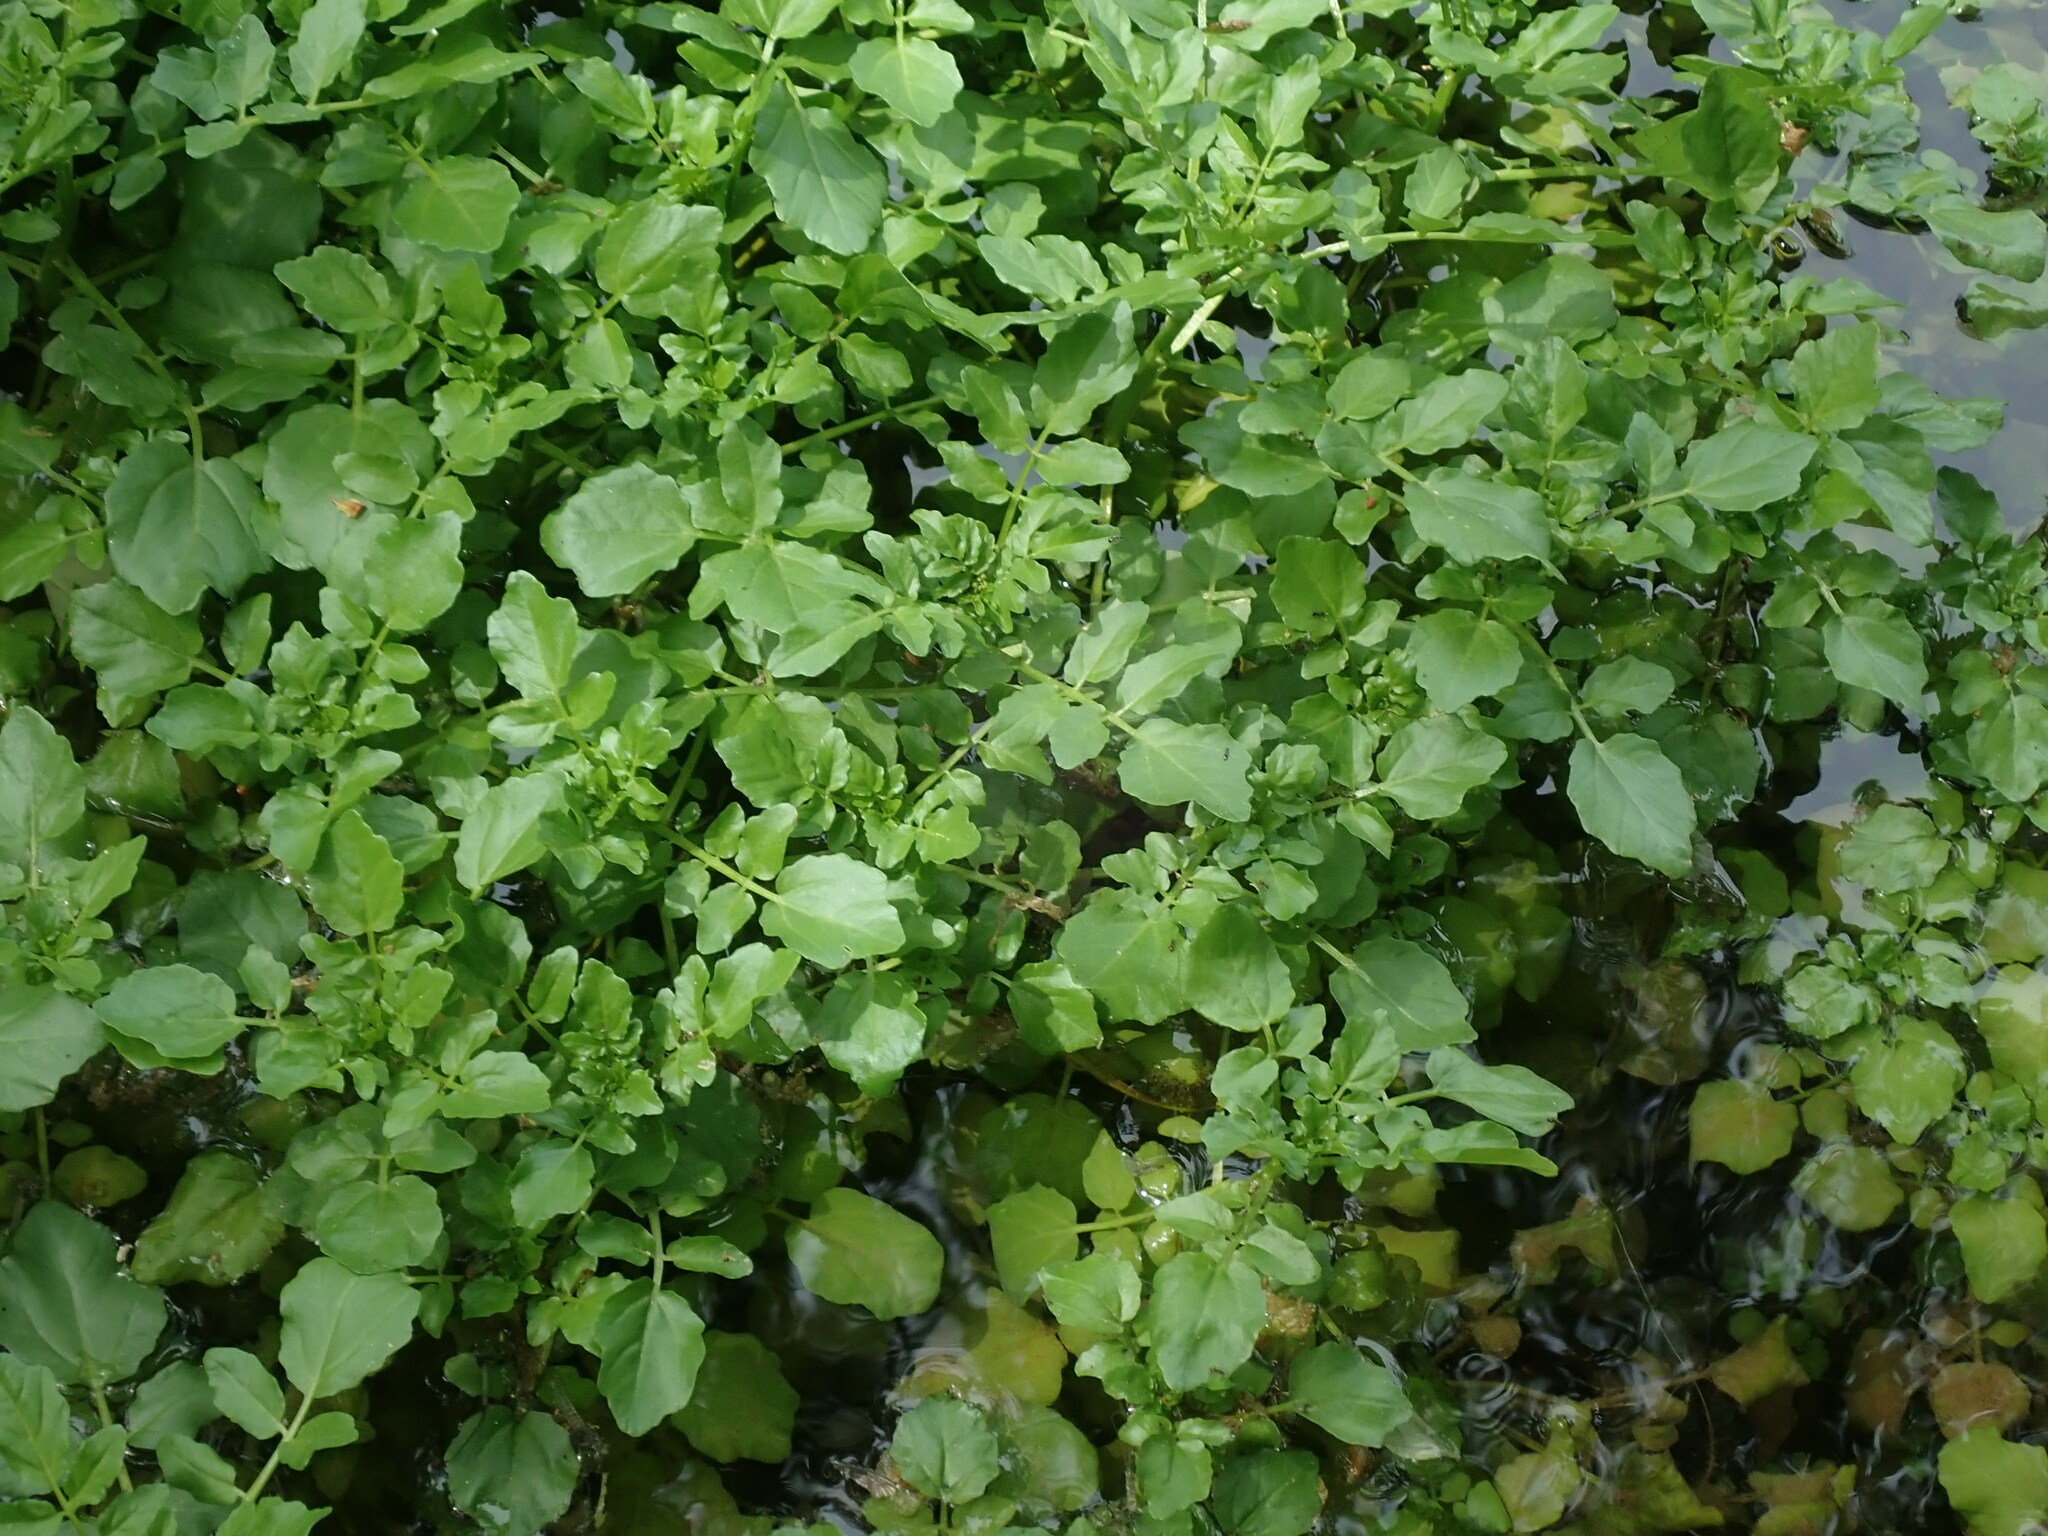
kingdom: Plantae
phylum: Tracheophyta
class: Magnoliopsida
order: Brassicales
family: Brassicaceae
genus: Nasturtium
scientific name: Nasturtium officinale
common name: Watercress
